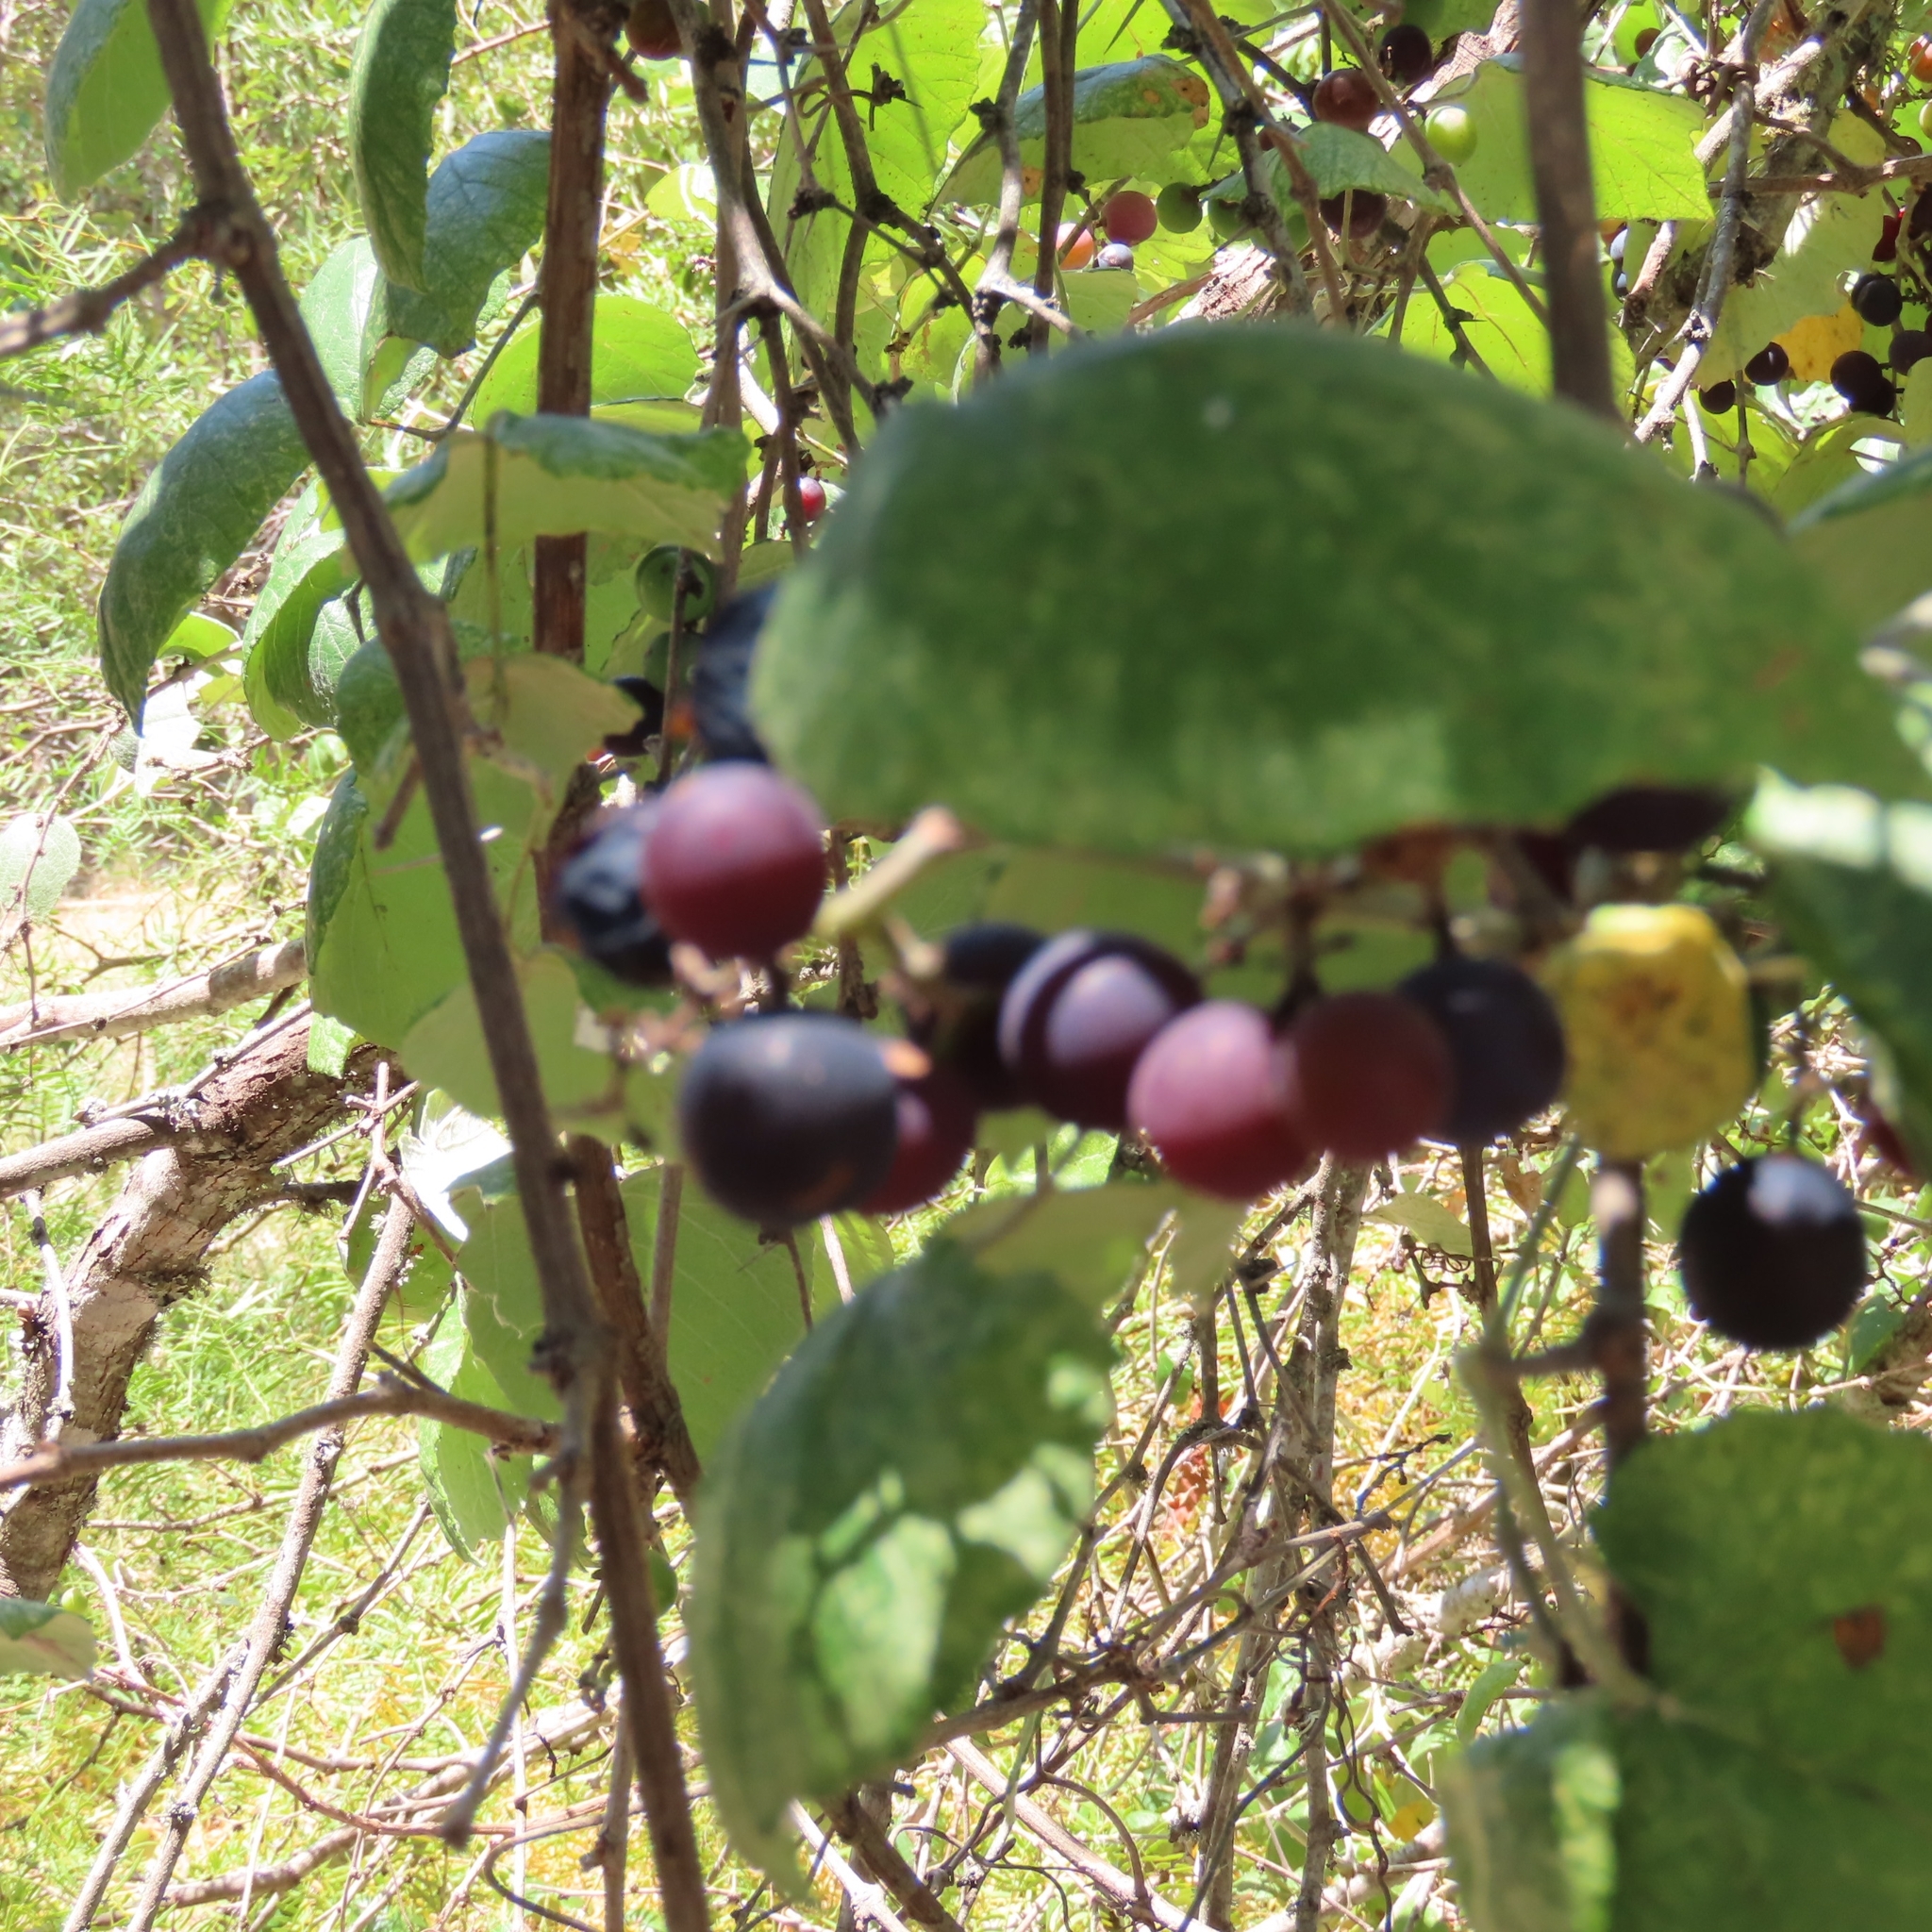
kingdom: Plantae
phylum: Tracheophyta
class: Magnoliopsida
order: Vitales
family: Vitaceae
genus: Vitis
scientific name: Vitis mustangensis
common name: Mustang grape
